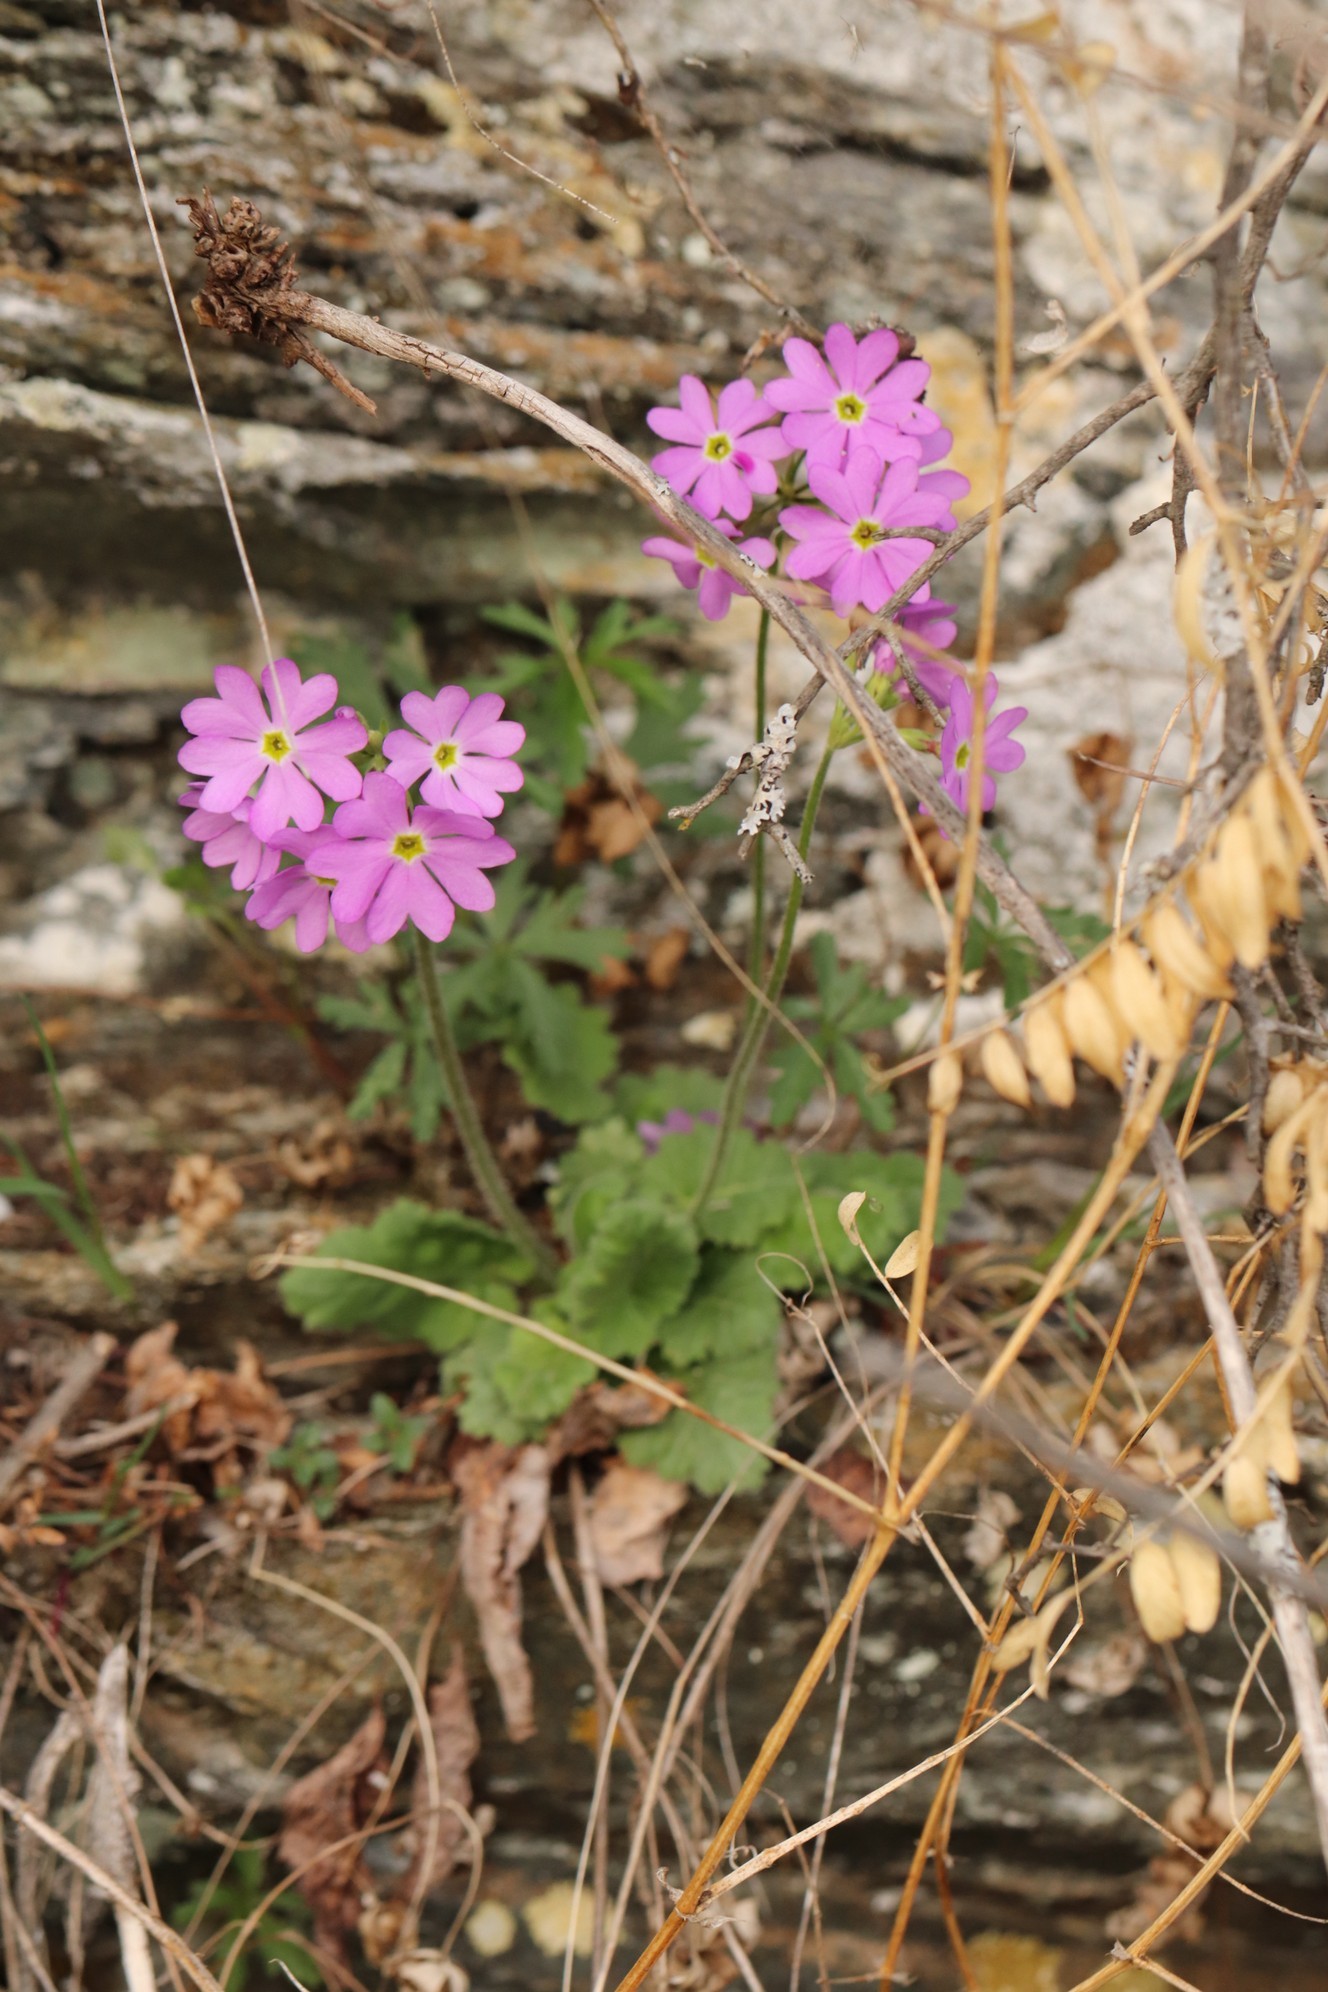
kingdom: Plantae
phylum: Tracheophyta
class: Magnoliopsida
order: Ericales
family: Primulaceae
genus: Primula
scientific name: Primula cortusoides
